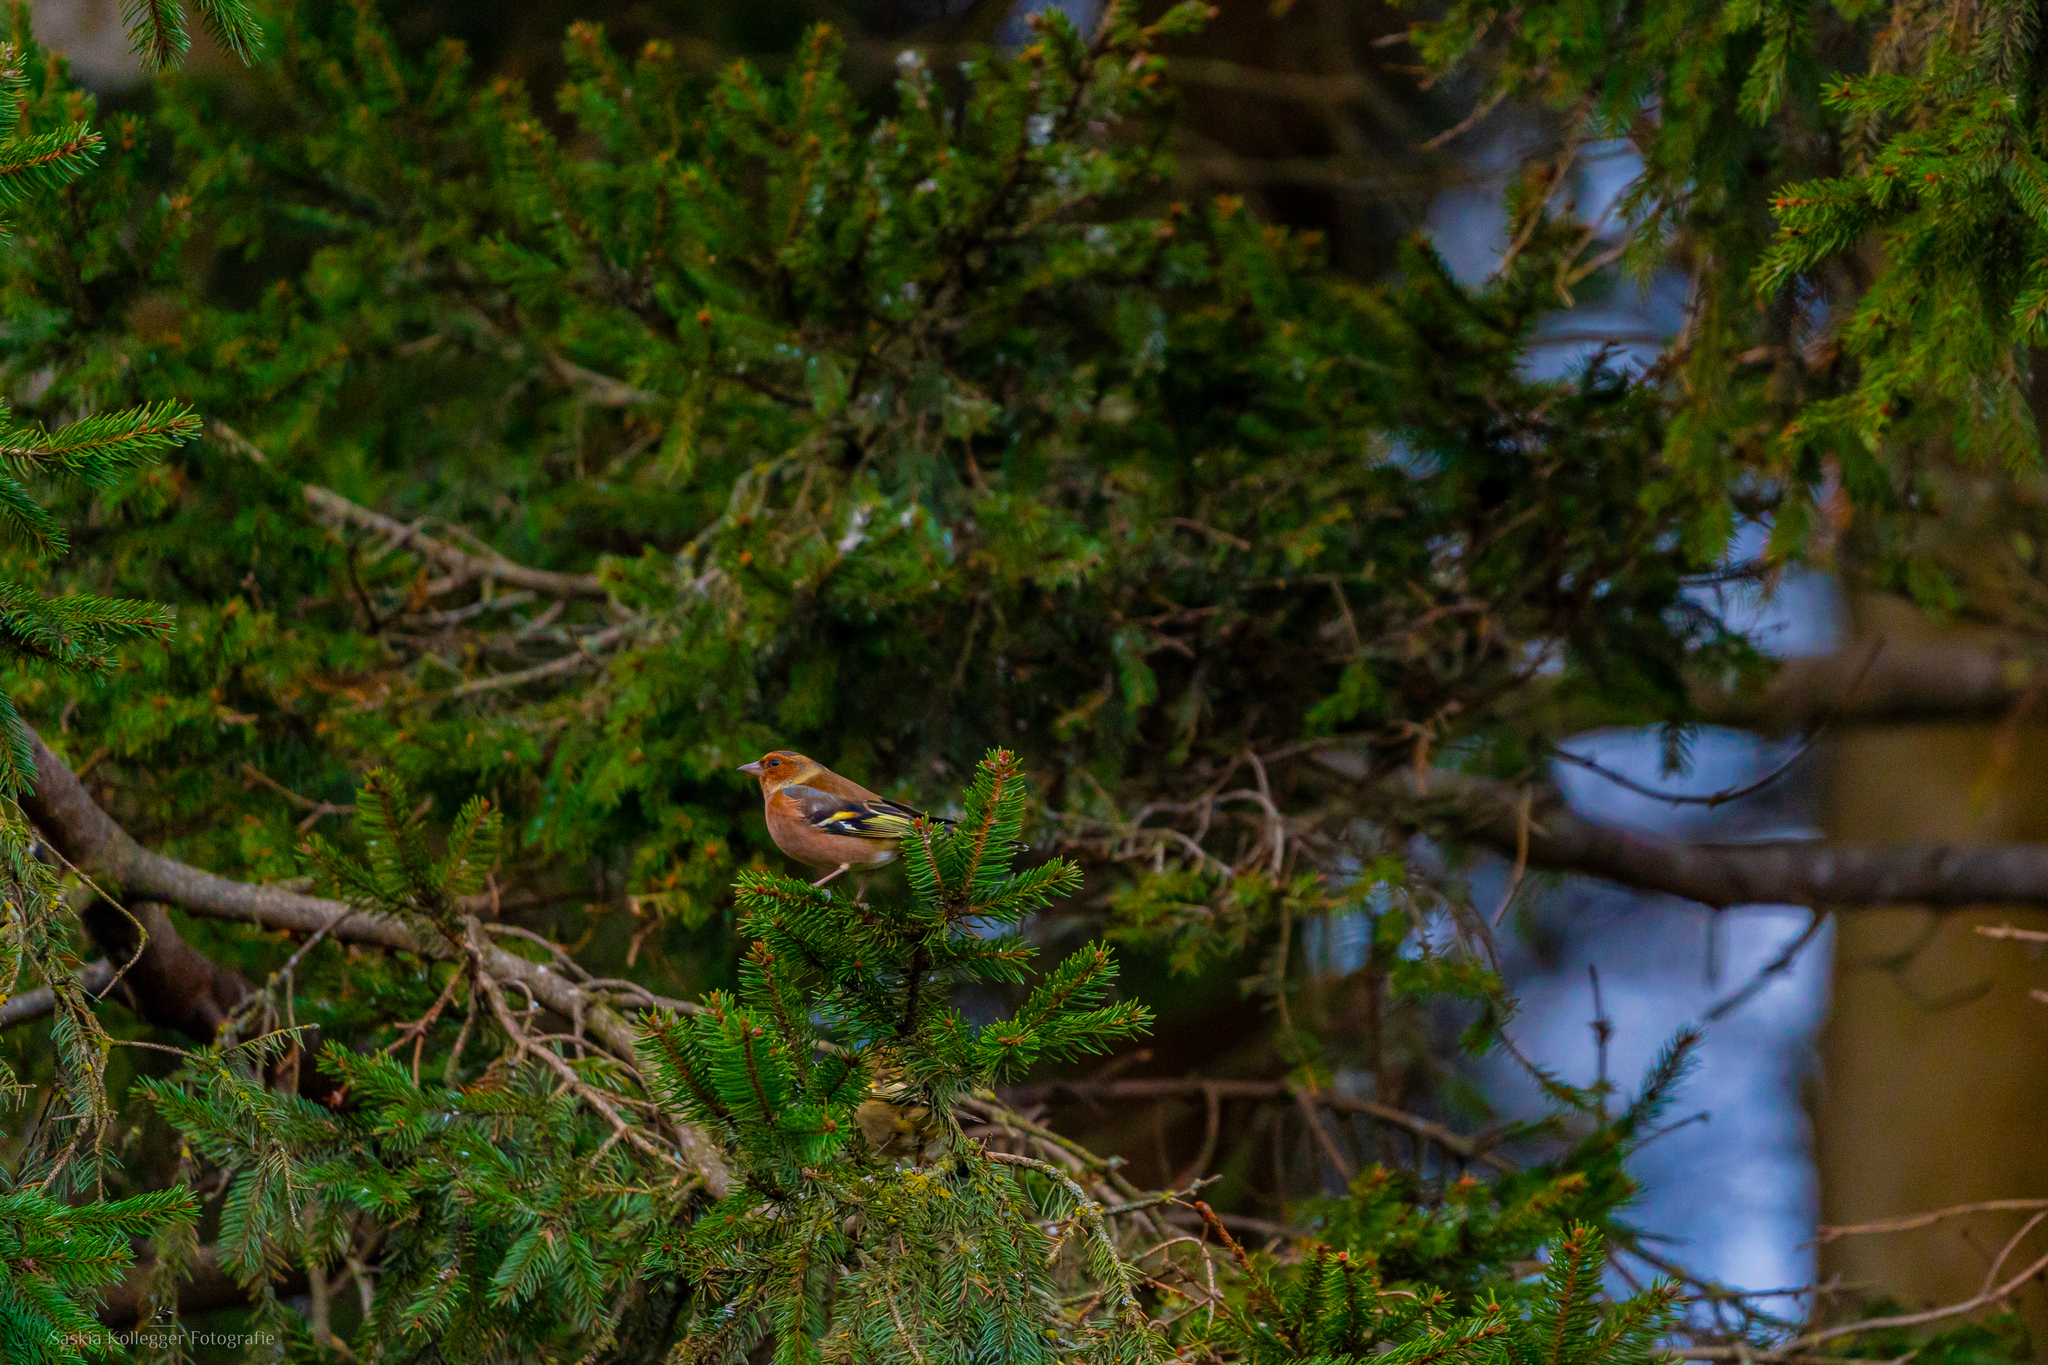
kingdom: Animalia
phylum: Chordata
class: Aves
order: Passeriformes
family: Fringillidae
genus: Fringilla
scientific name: Fringilla coelebs
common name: Common chaffinch
